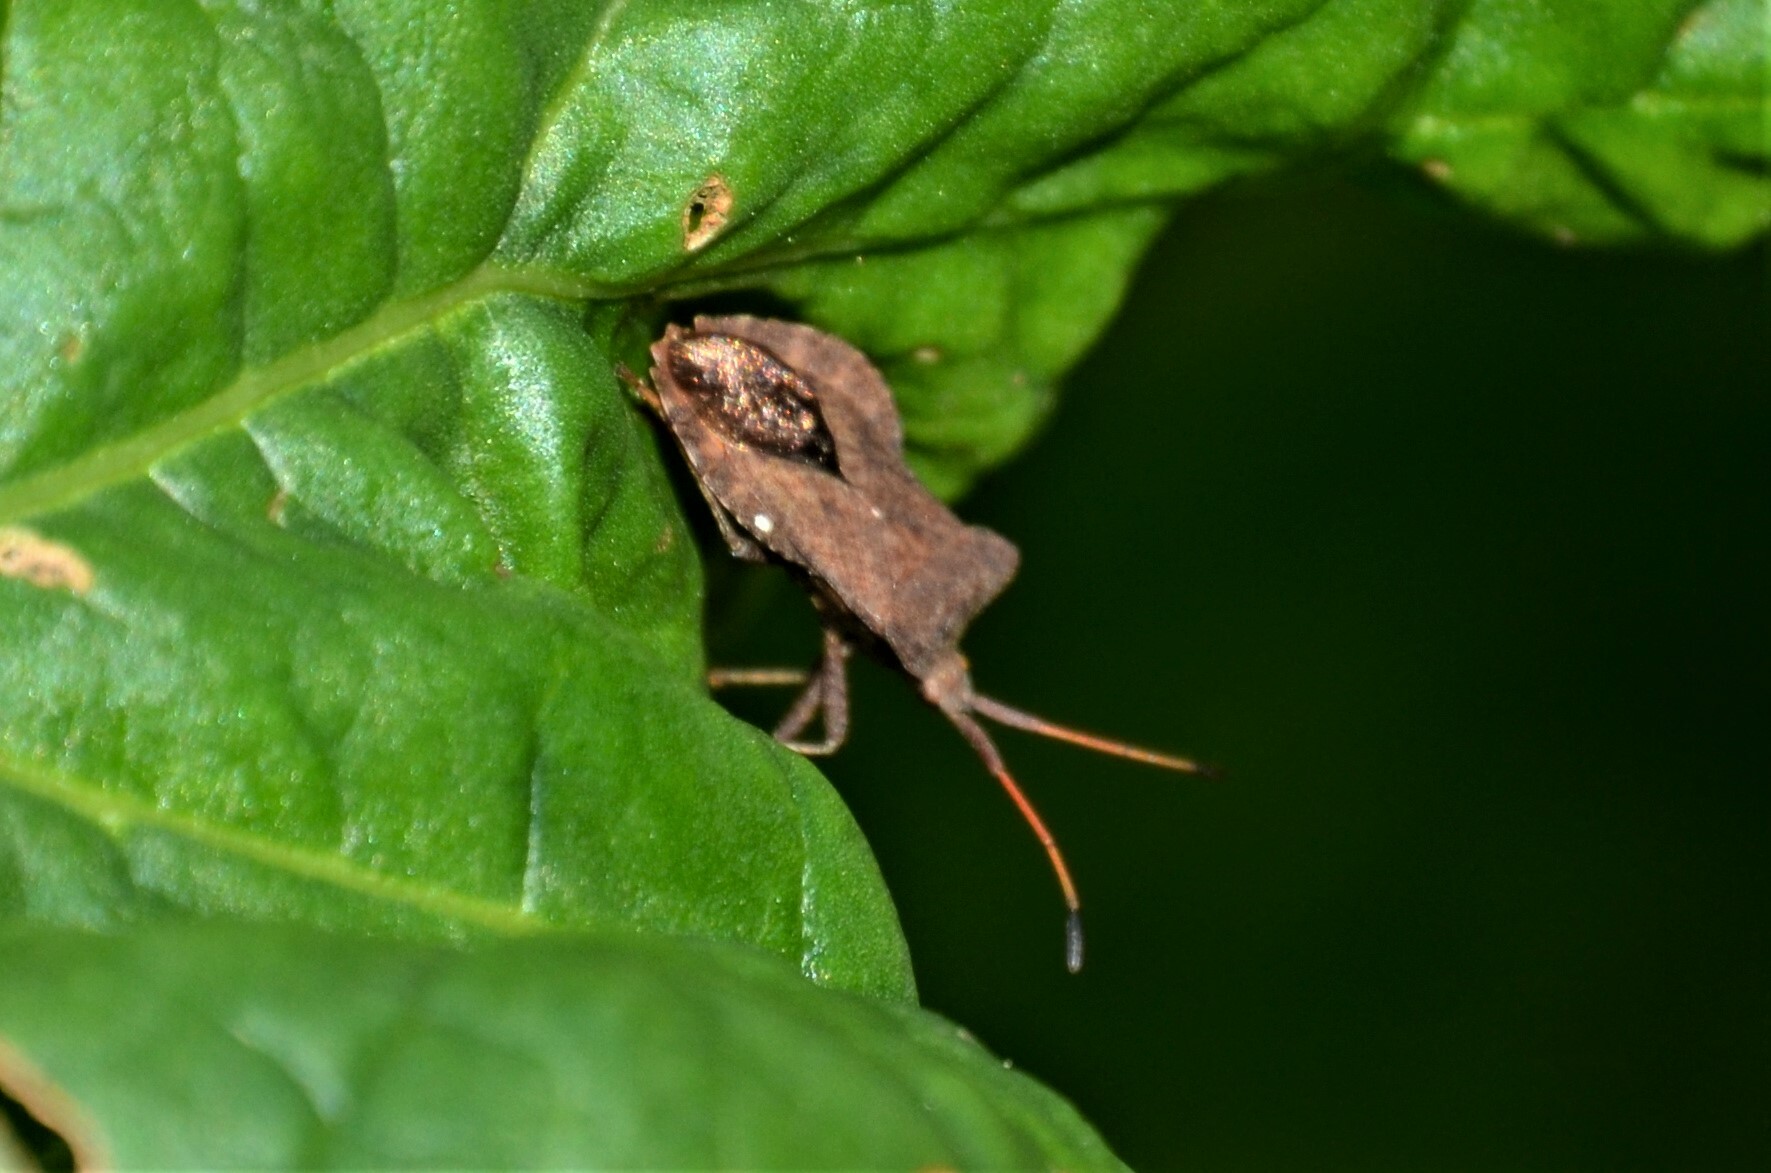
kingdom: Animalia
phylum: Arthropoda
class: Insecta
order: Hemiptera
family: Coreidae
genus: Coreus
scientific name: Coreus marginatus
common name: Dock bug
